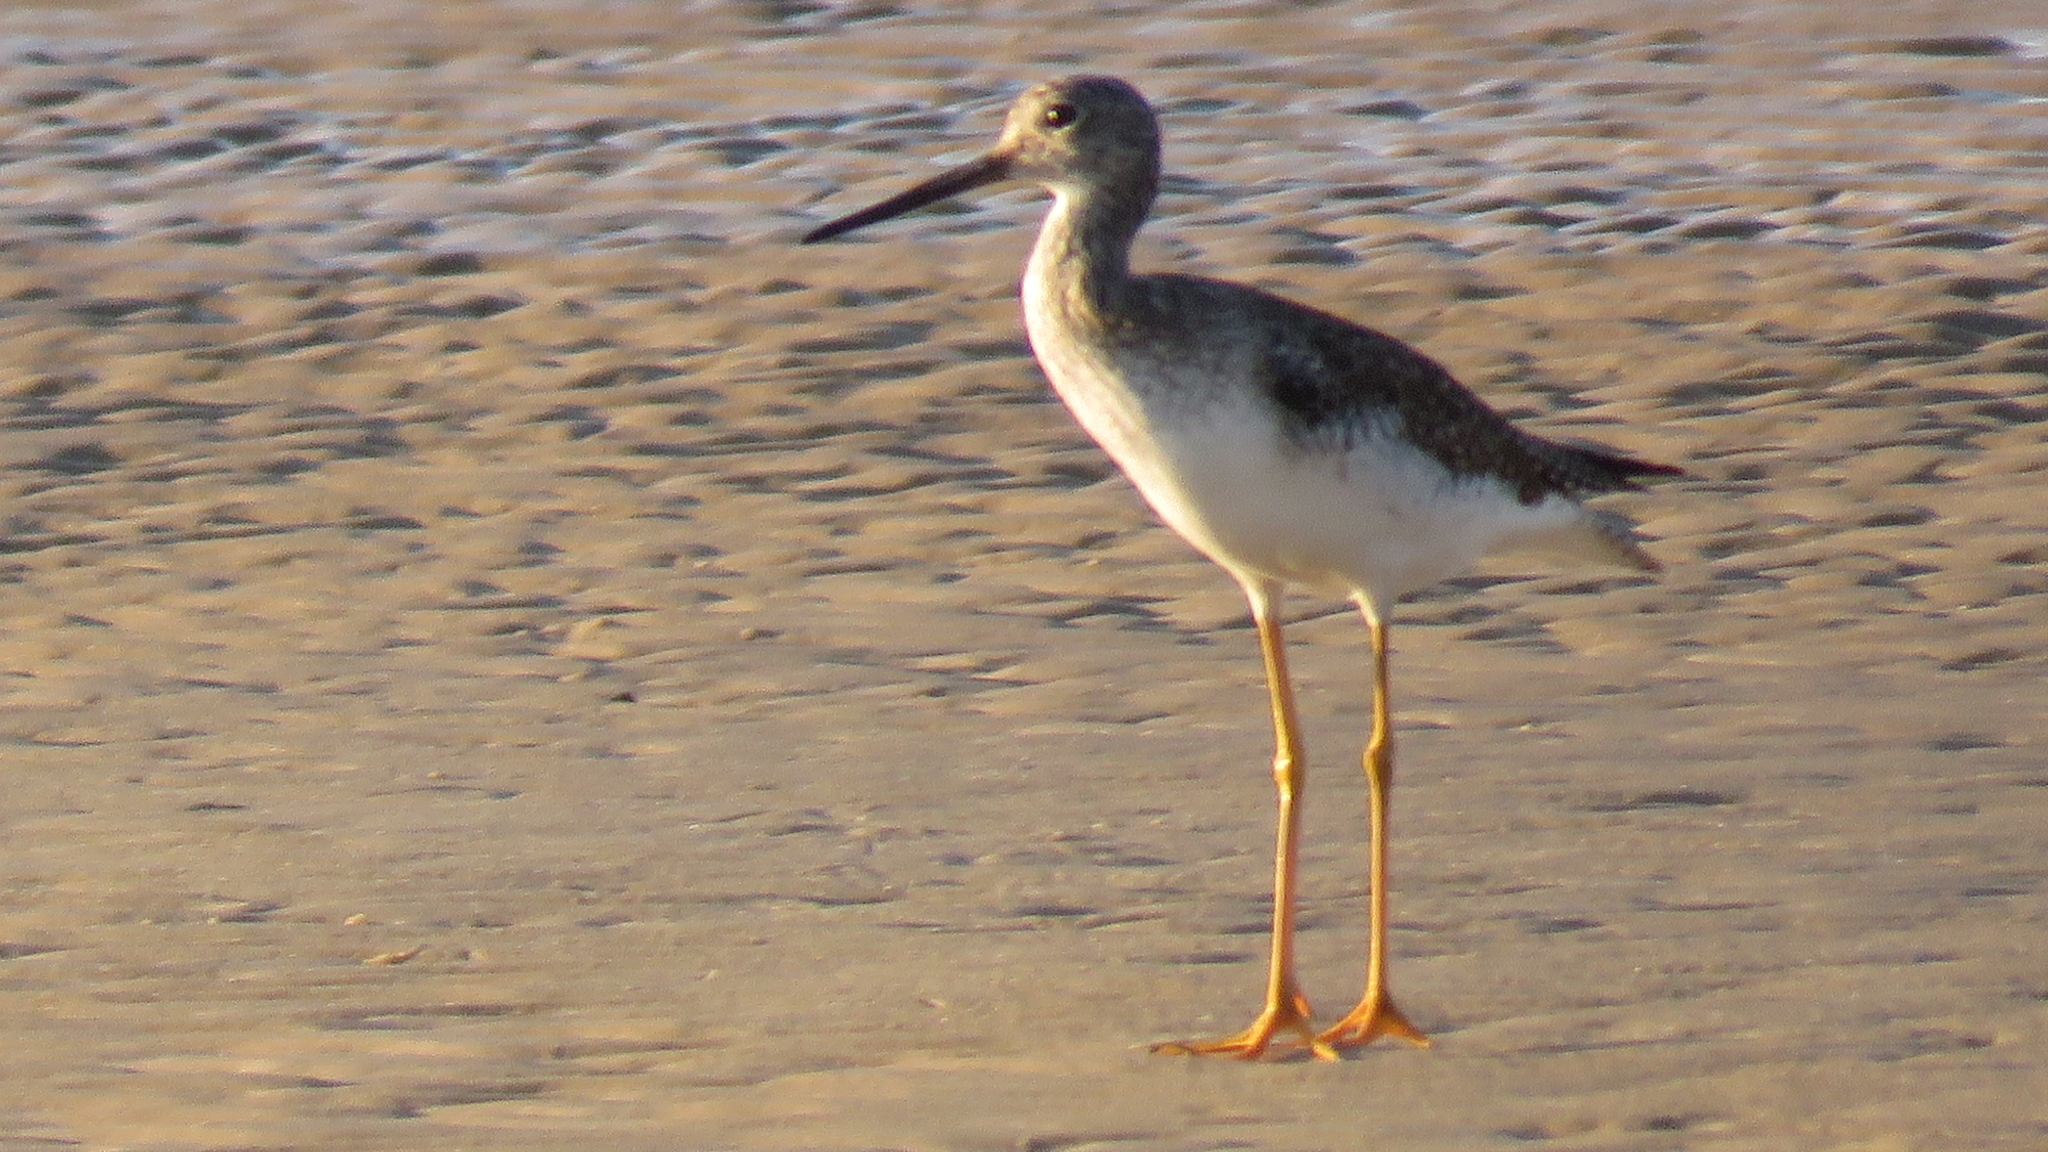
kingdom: Animalia
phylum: Chordata
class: Aves
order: Charadriiformes
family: Scolopacidae
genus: Tringa
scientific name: Tringa melanoleuca
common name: Greater yellowlegs
